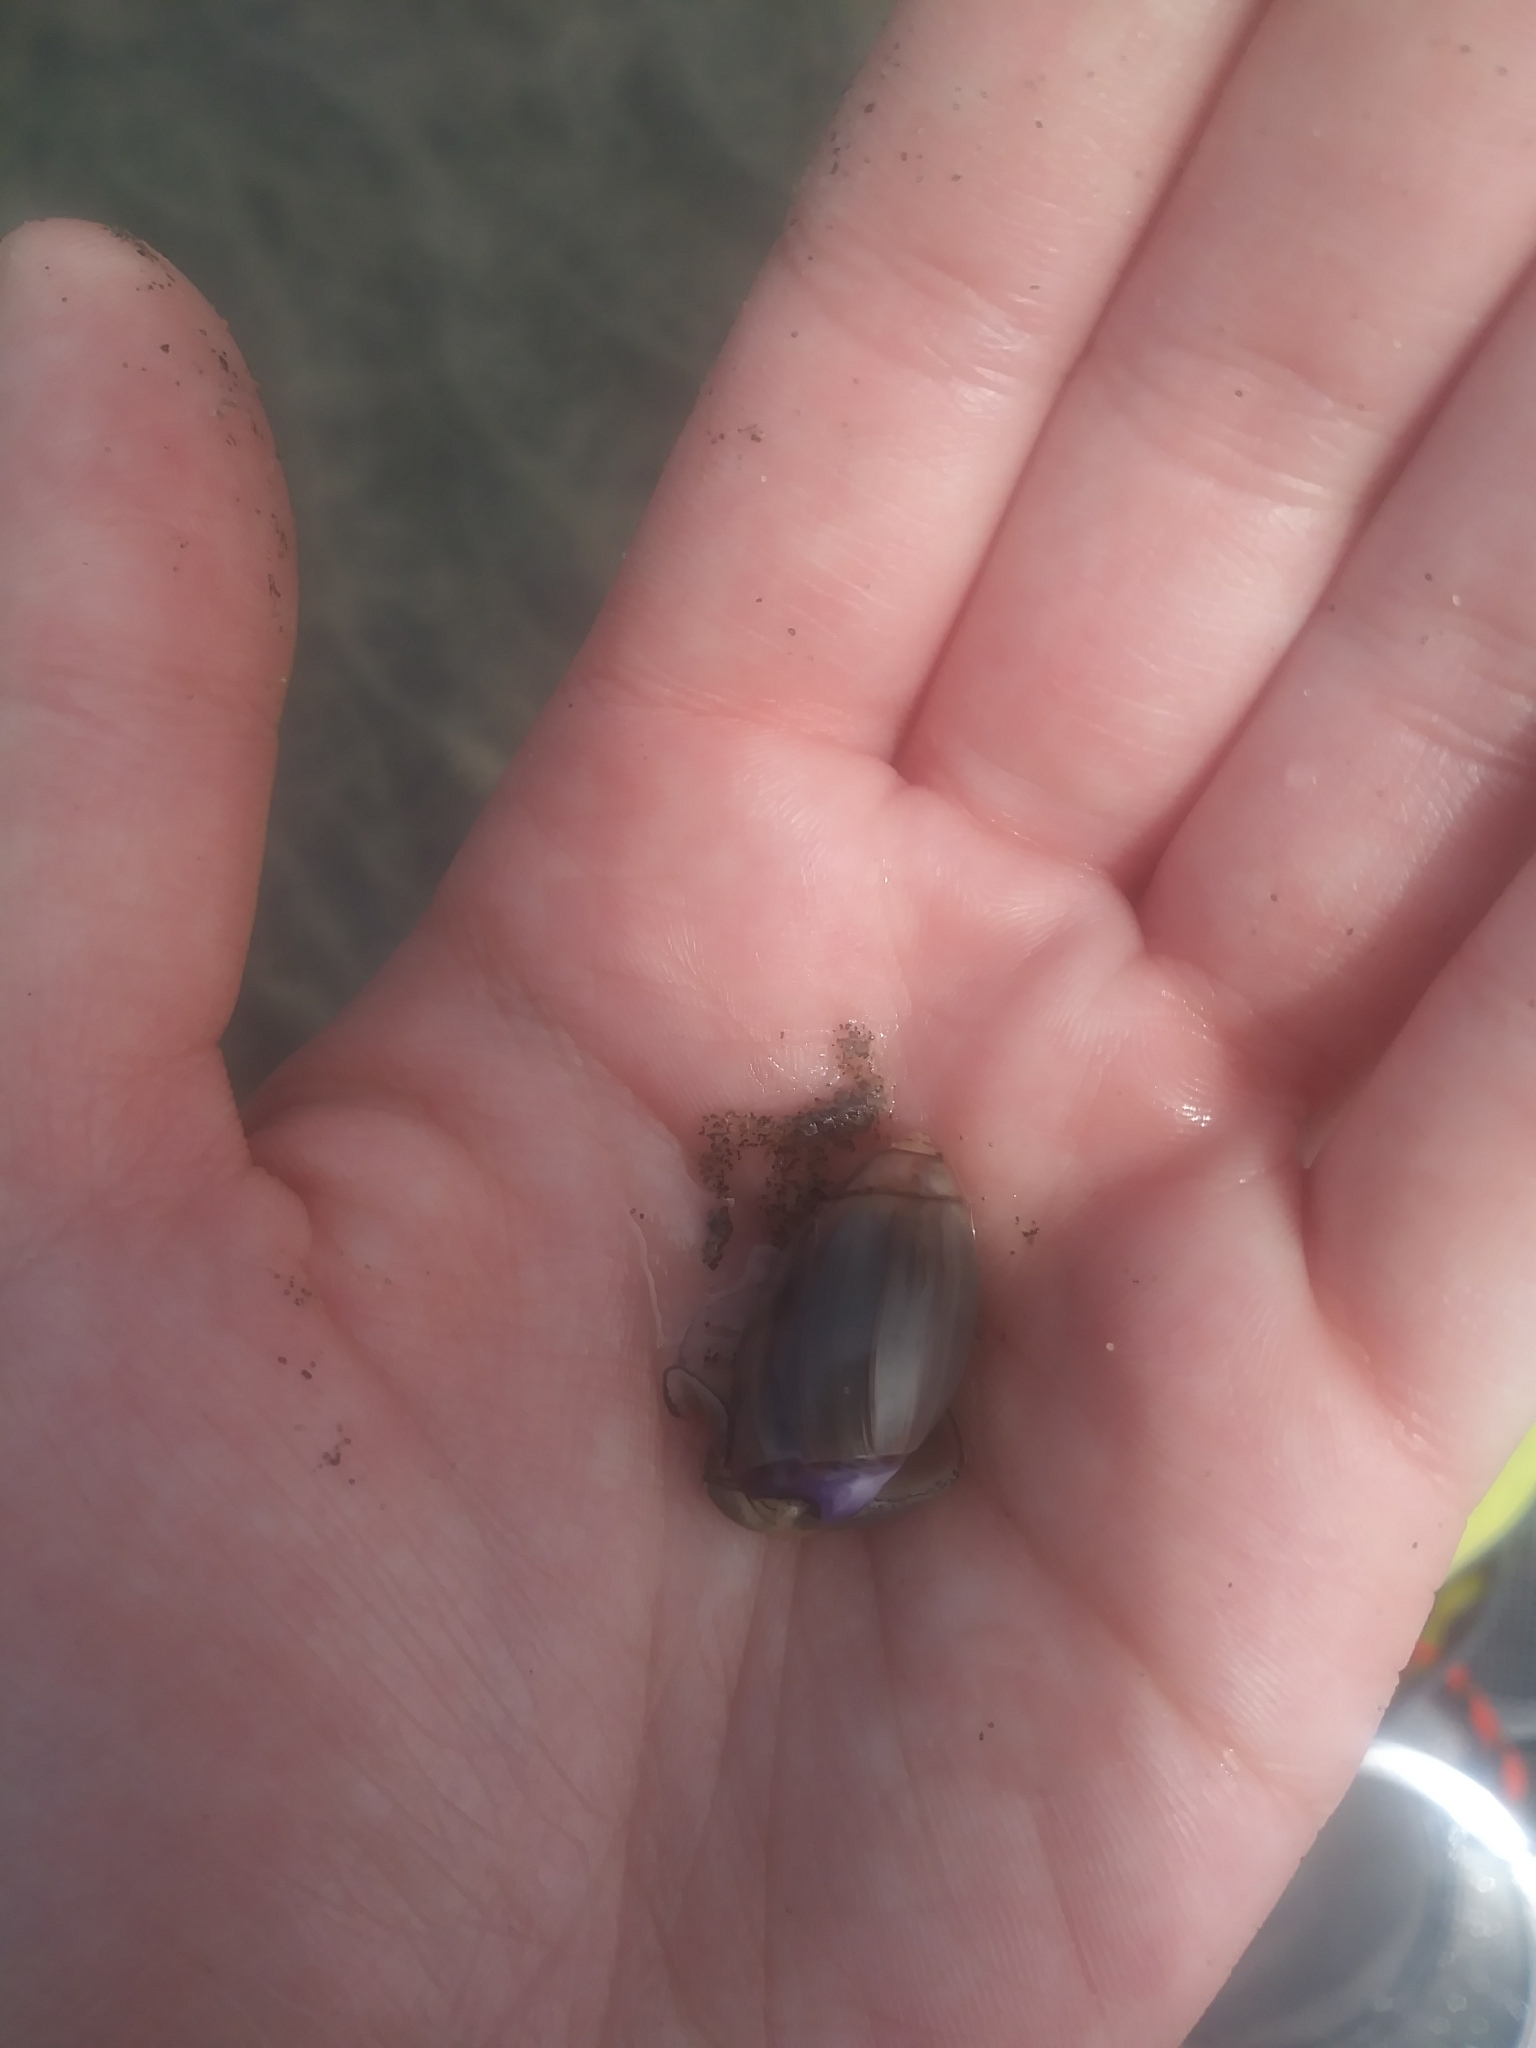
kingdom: Animalia
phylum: Mollusca
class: Gastropoda
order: Neogastropoda
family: Olividae
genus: Callianax
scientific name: Callianax biplicata
